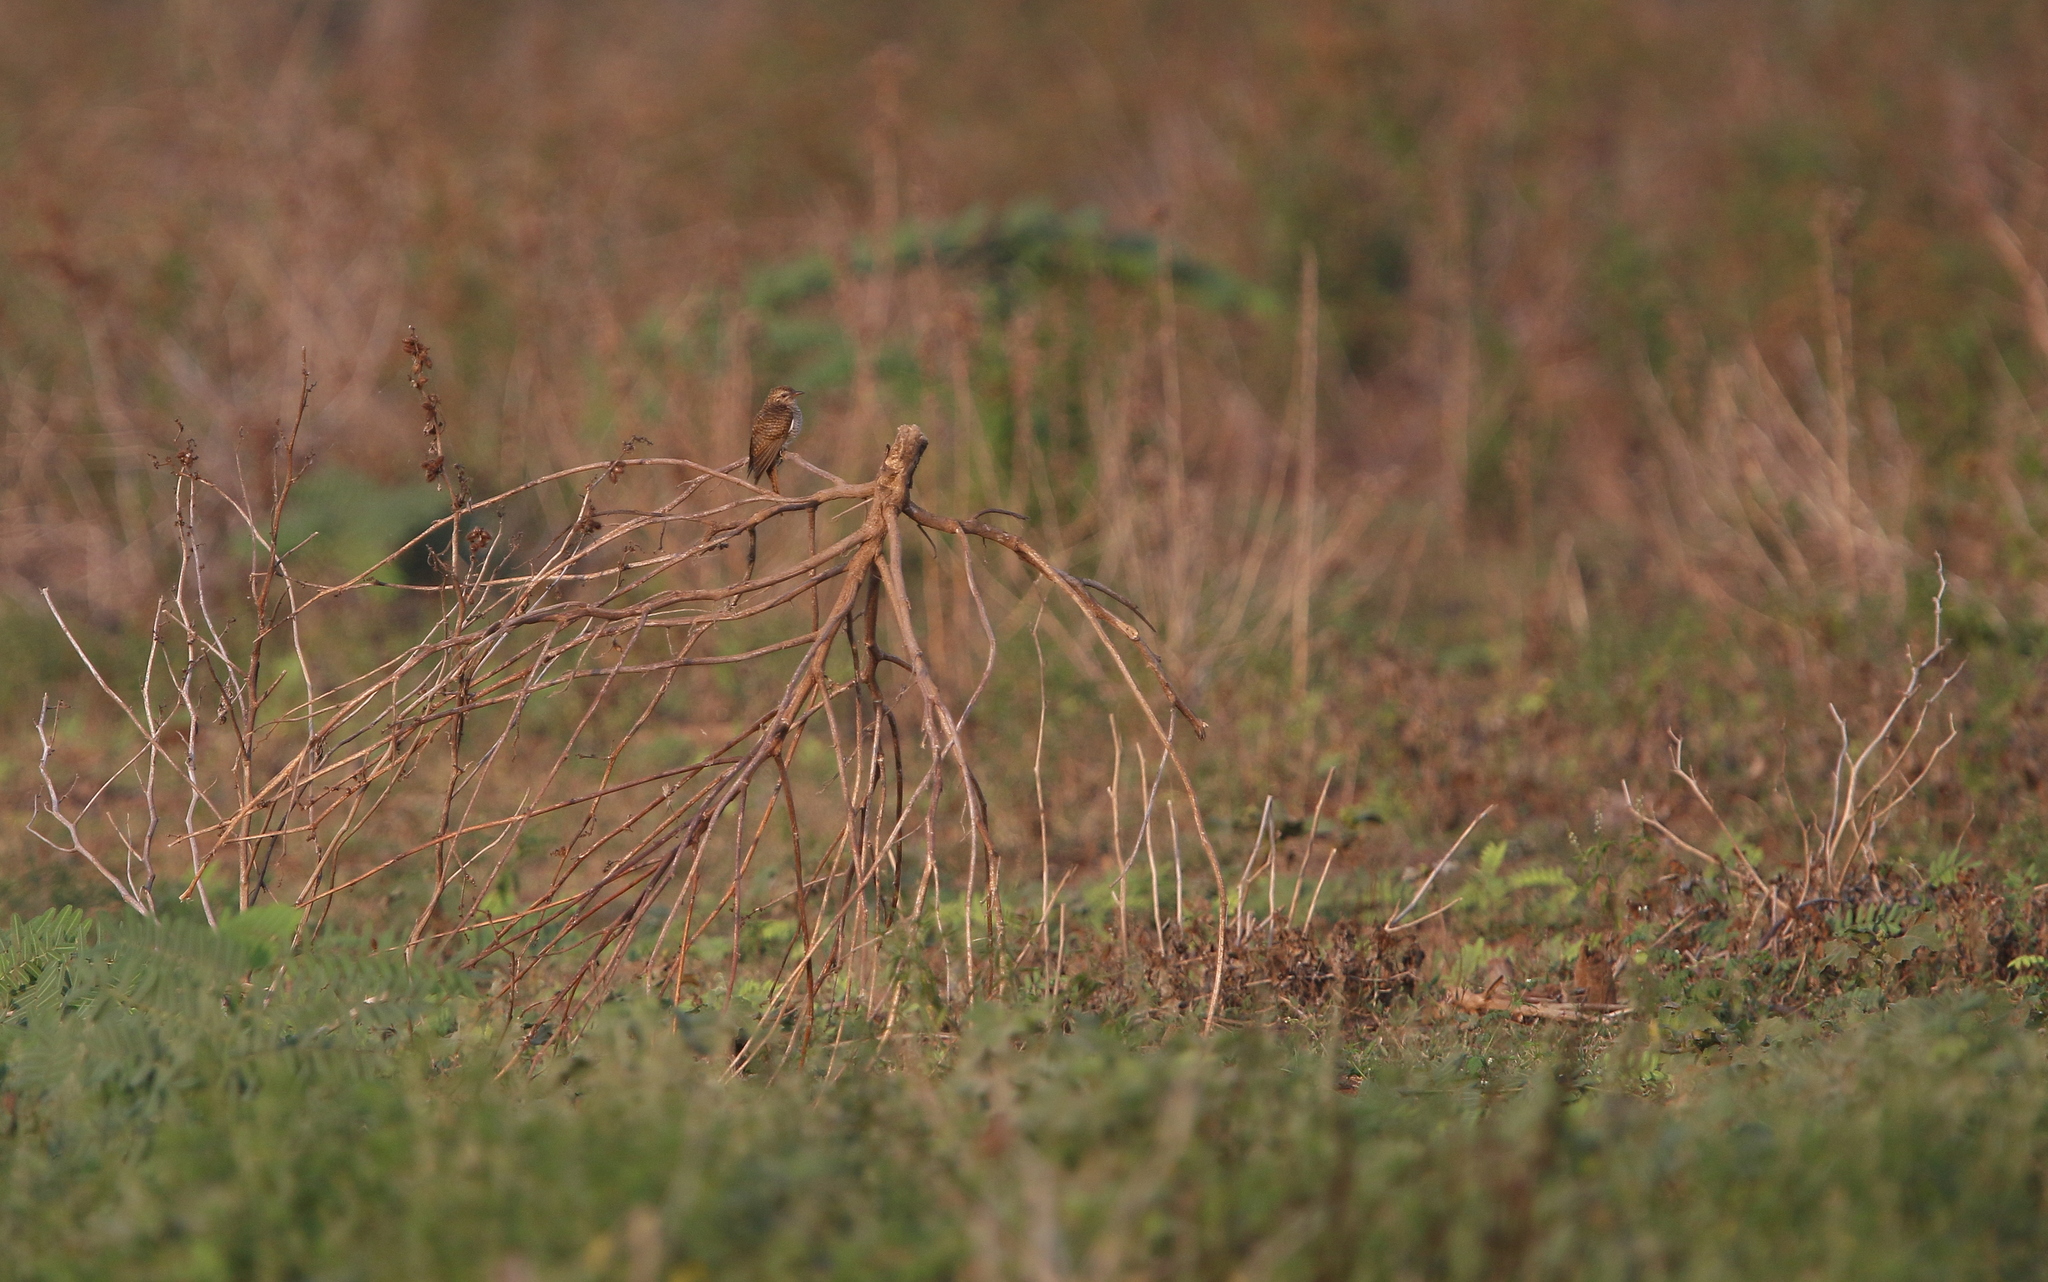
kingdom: Animalia
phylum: Chordata
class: Aves
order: Cuculiformes
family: Cuculidae
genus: Cacomantis
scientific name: Cacomantis merulinus
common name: Plaintive cuckoo
